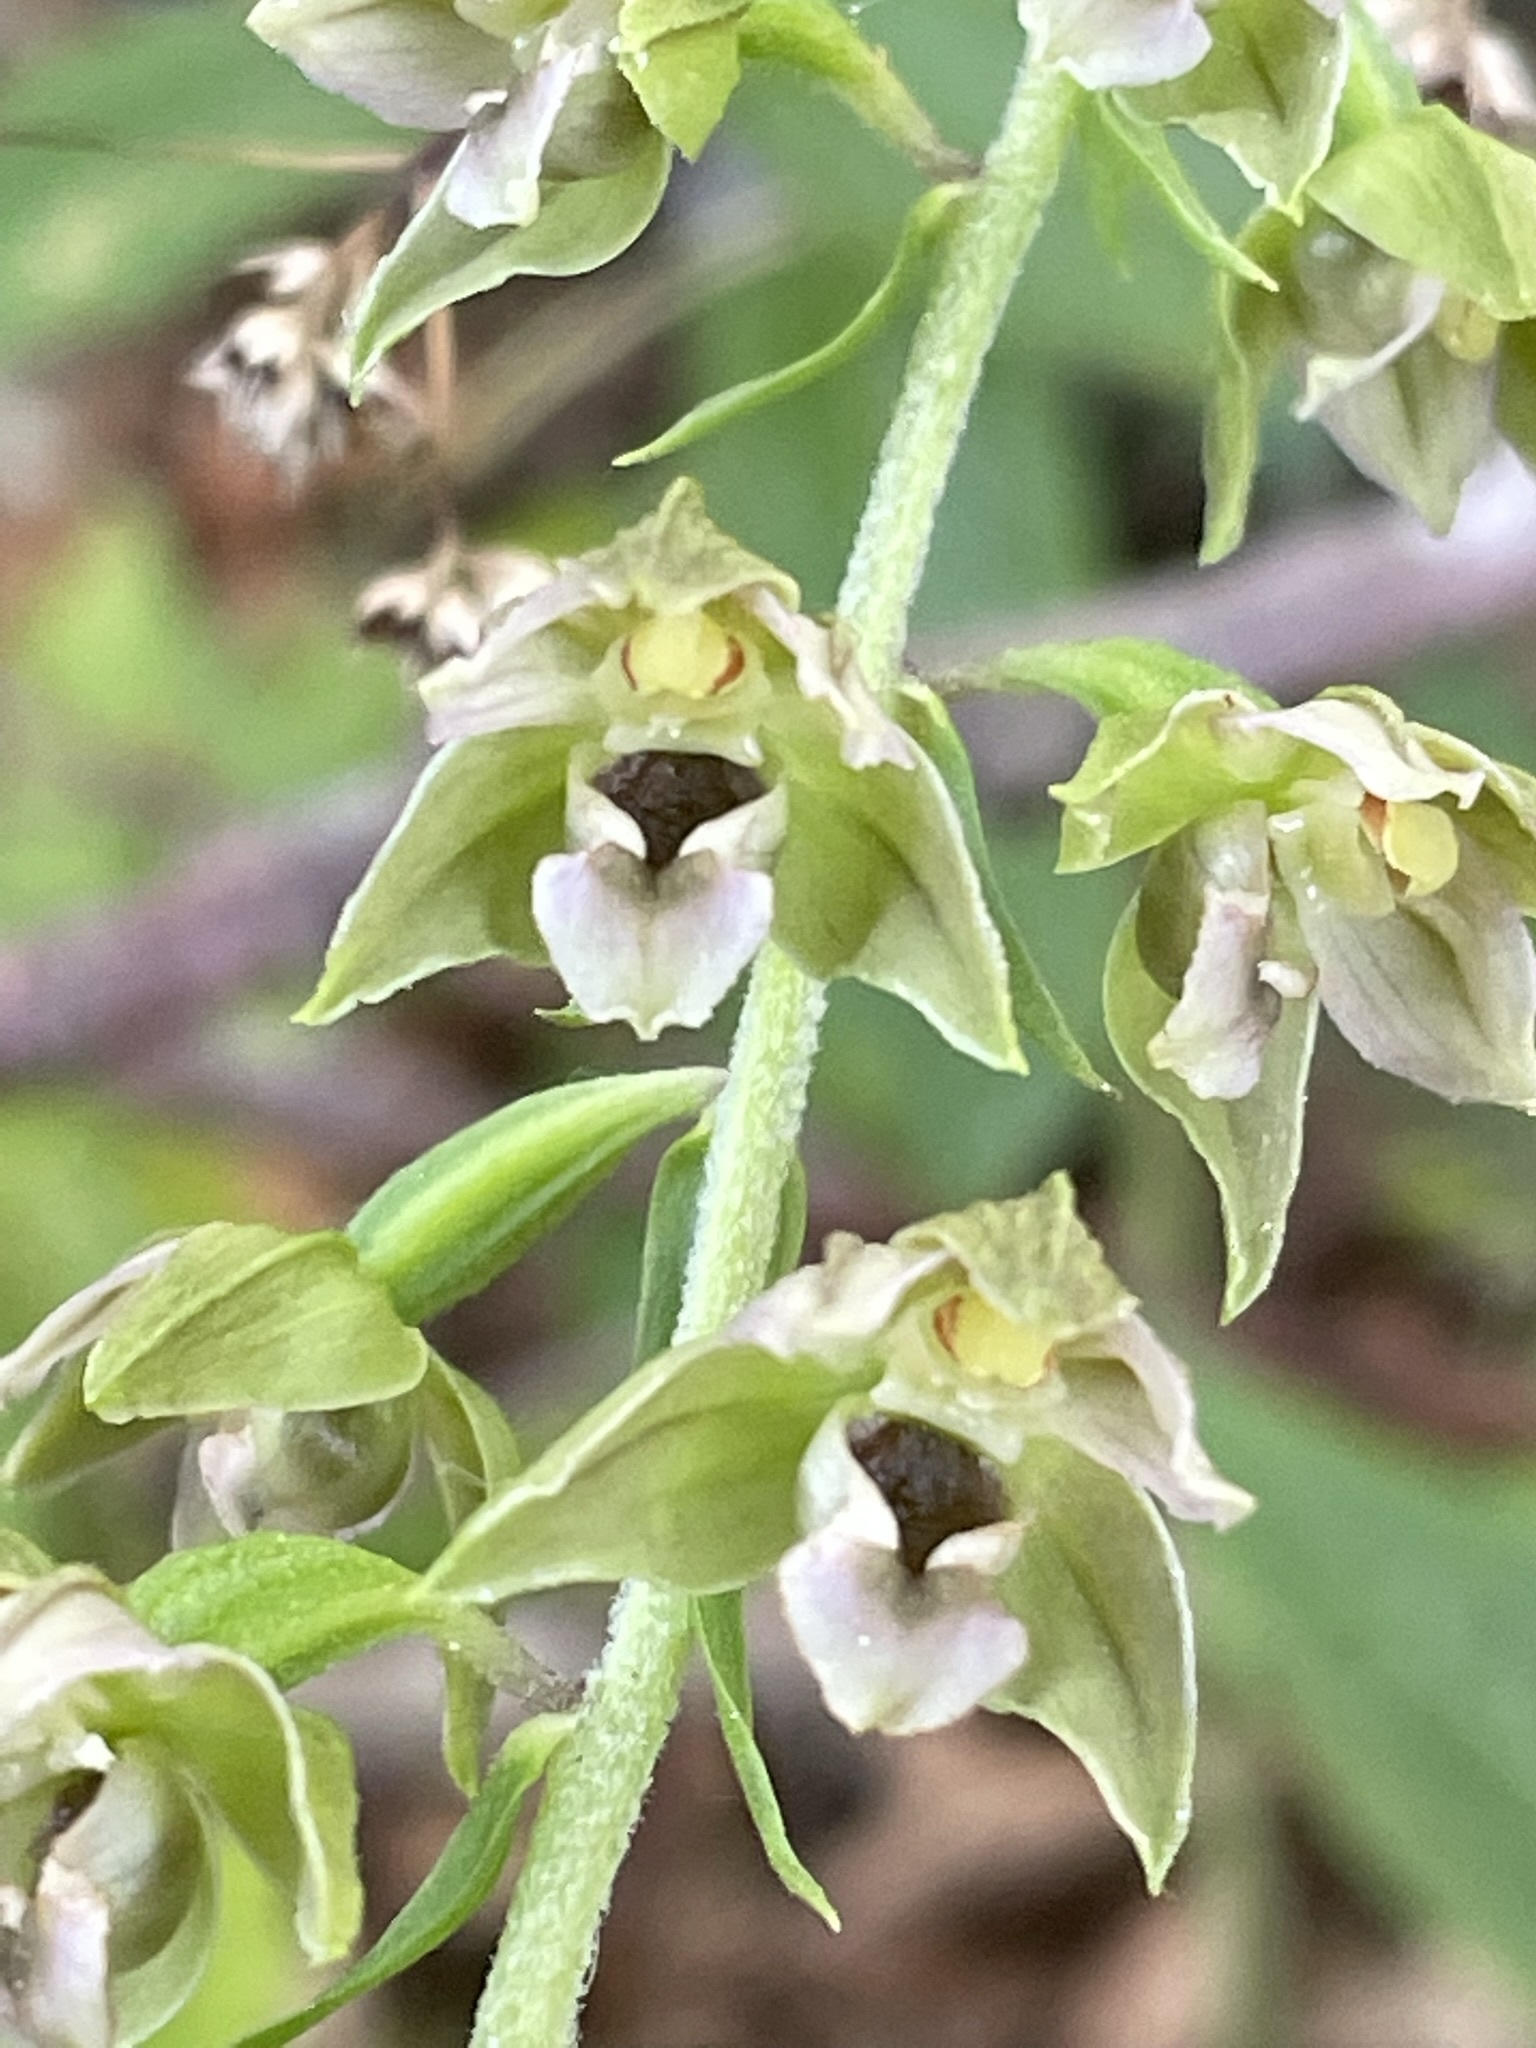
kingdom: Plantae
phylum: Tracheophyta
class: Liliopsida
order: Asparagales
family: Orchidaceae
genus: Epipactis
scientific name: Epipactis helleborine
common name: Broad-leaved helleborine
